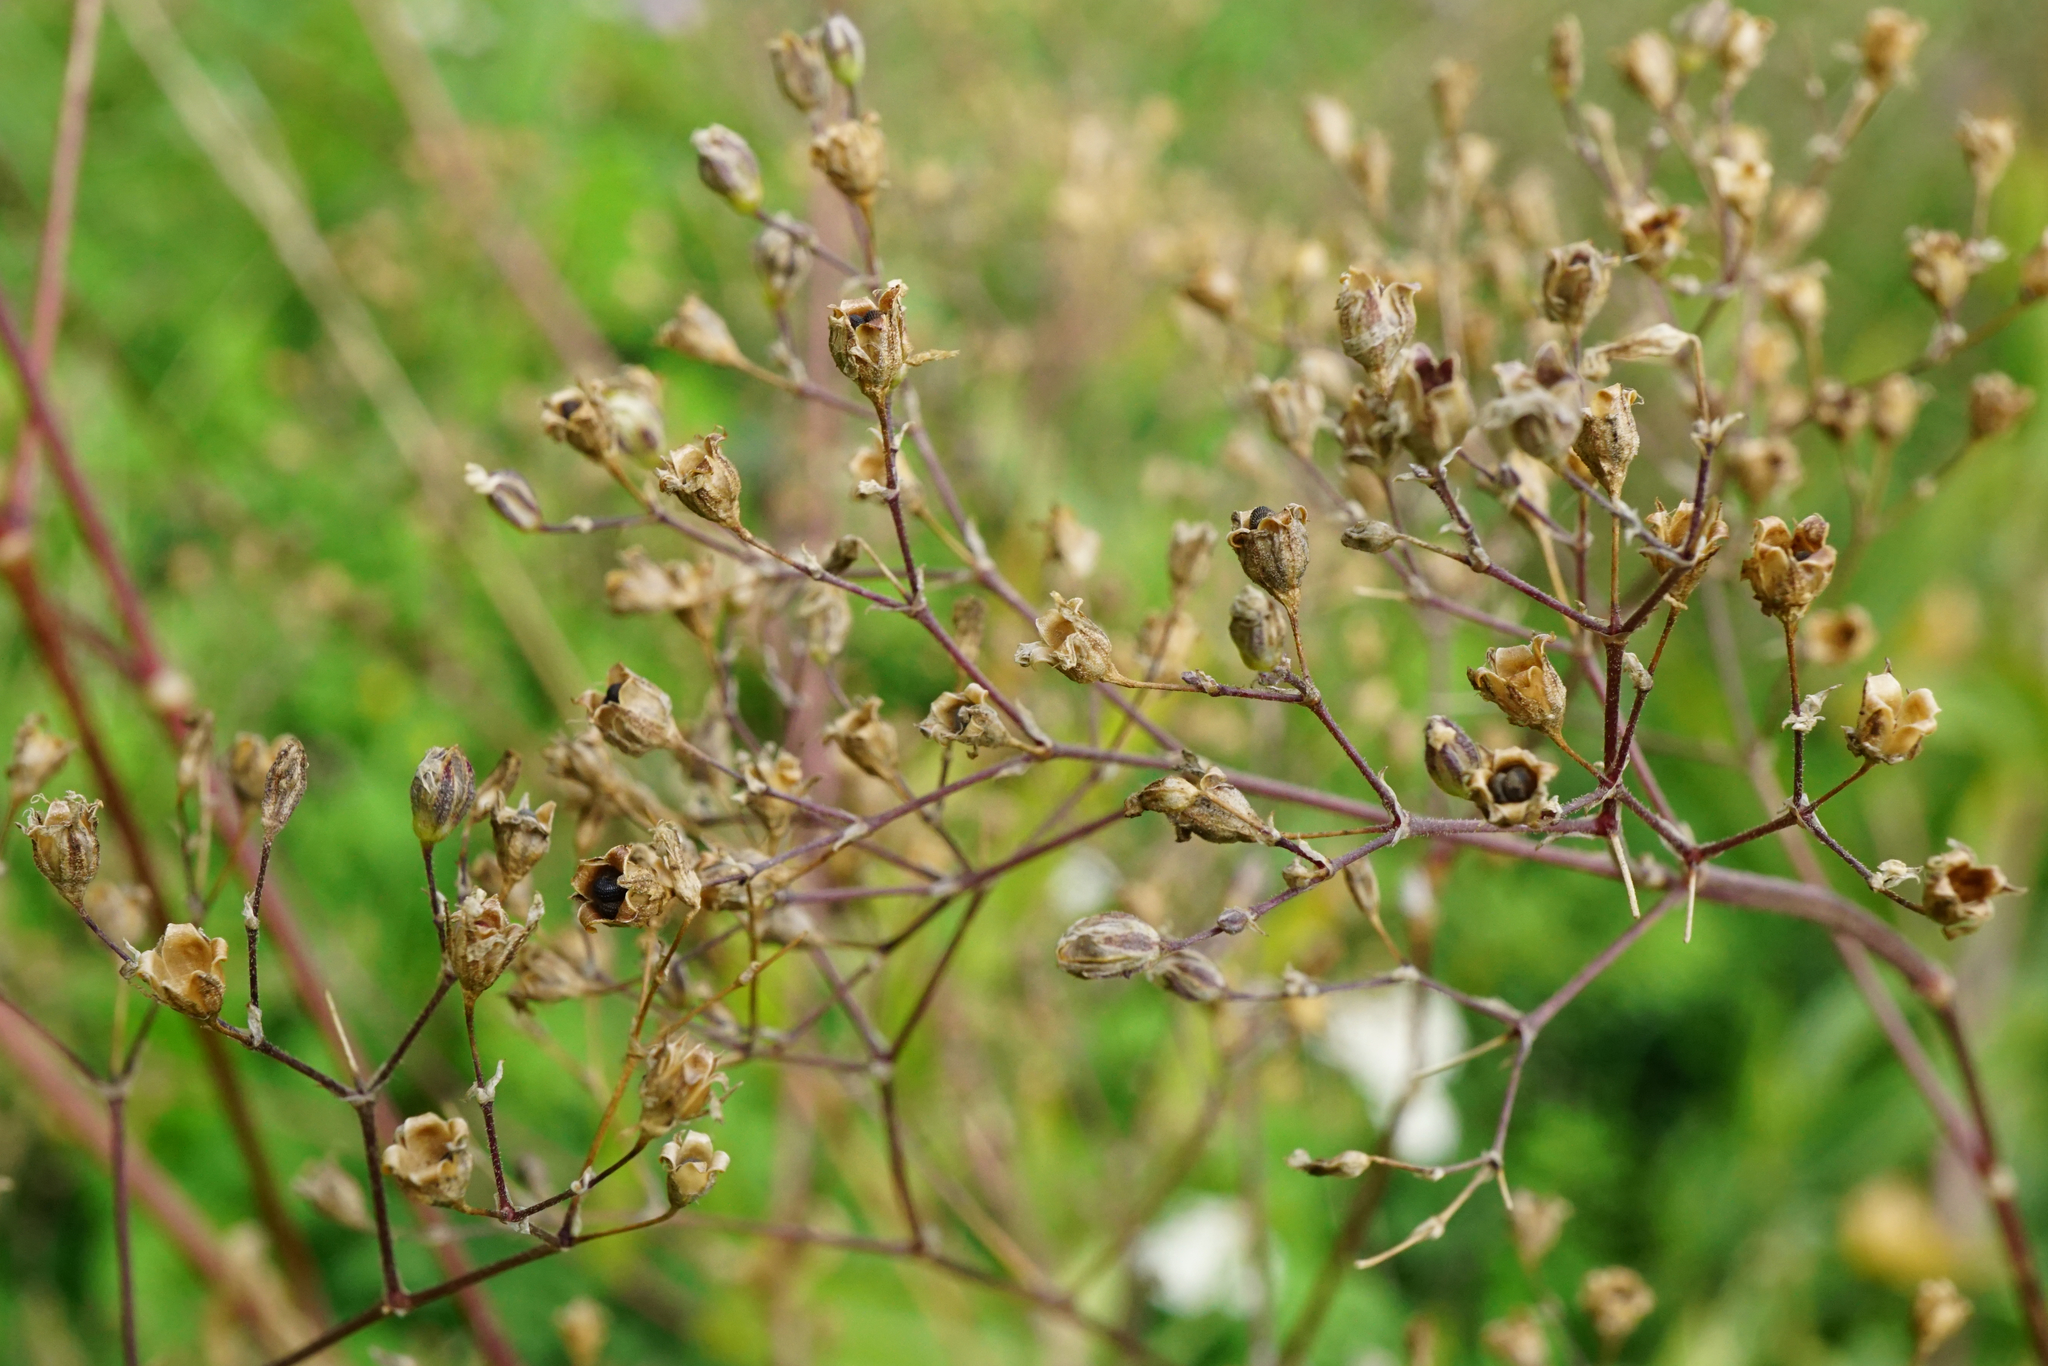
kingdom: Plantae
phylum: Tracheophyta
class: Magnoliopsida
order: Caryophyllales
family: Caryophyllaceae
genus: Gypsophila
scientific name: Gypsophila scorzonerifolia
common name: Garden baby's-breath
